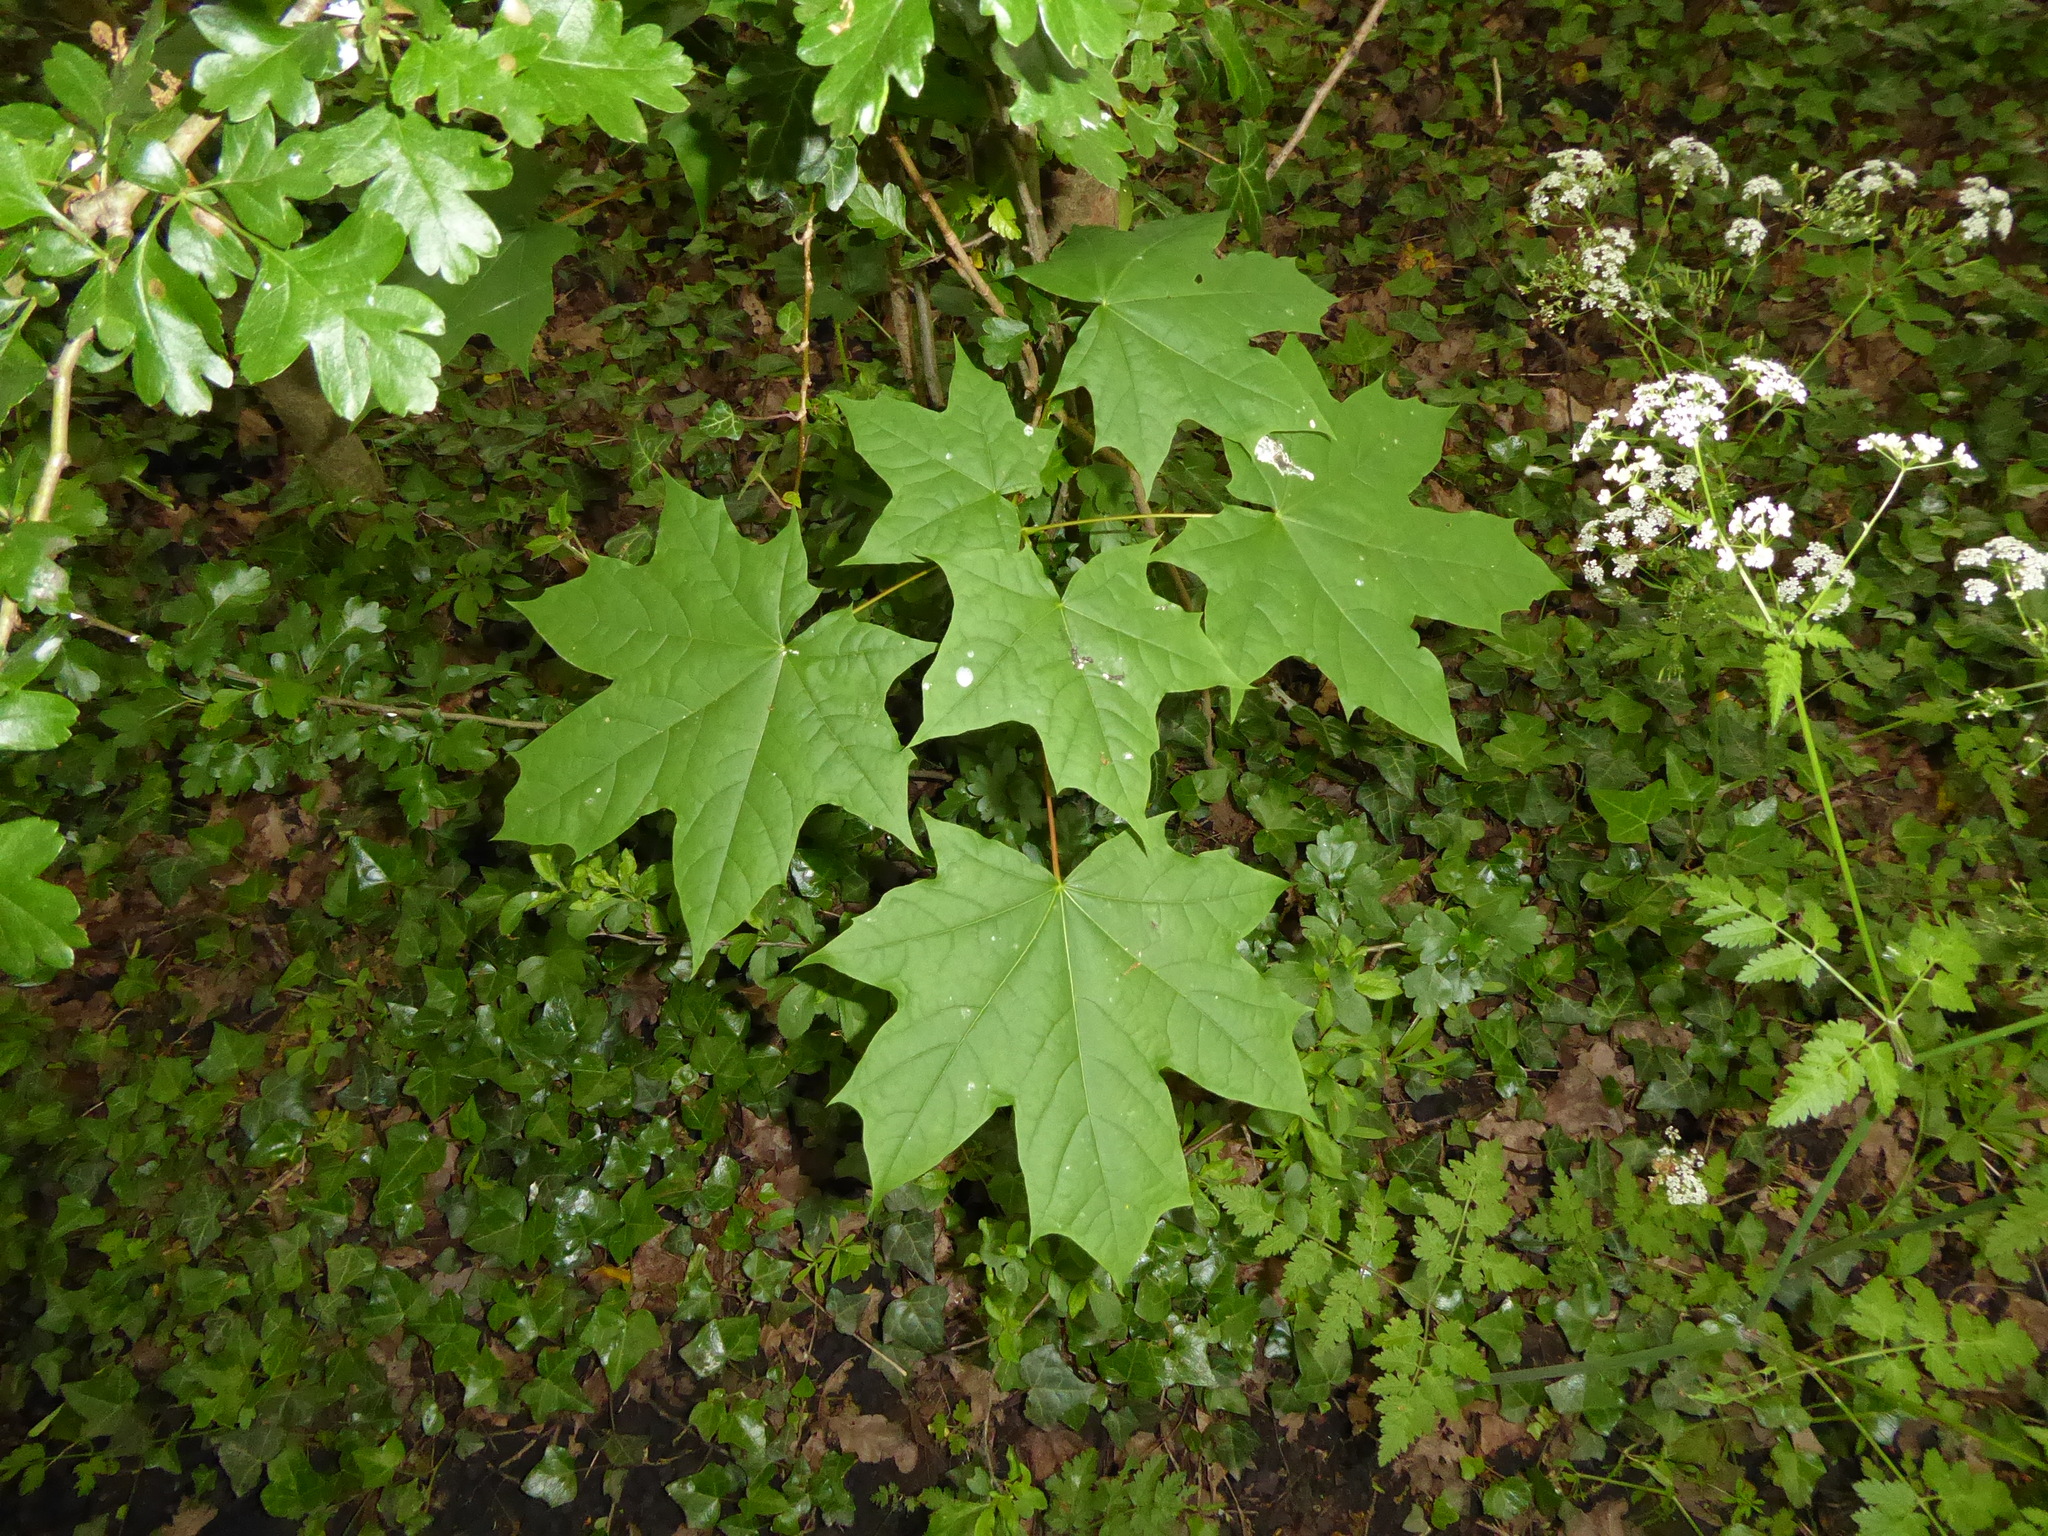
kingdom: Plantae
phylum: Tracheophyta
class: Magnoliopsida
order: Sapindales
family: Sapindaceae
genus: Acer
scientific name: Acer platanoides
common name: Norway maple
